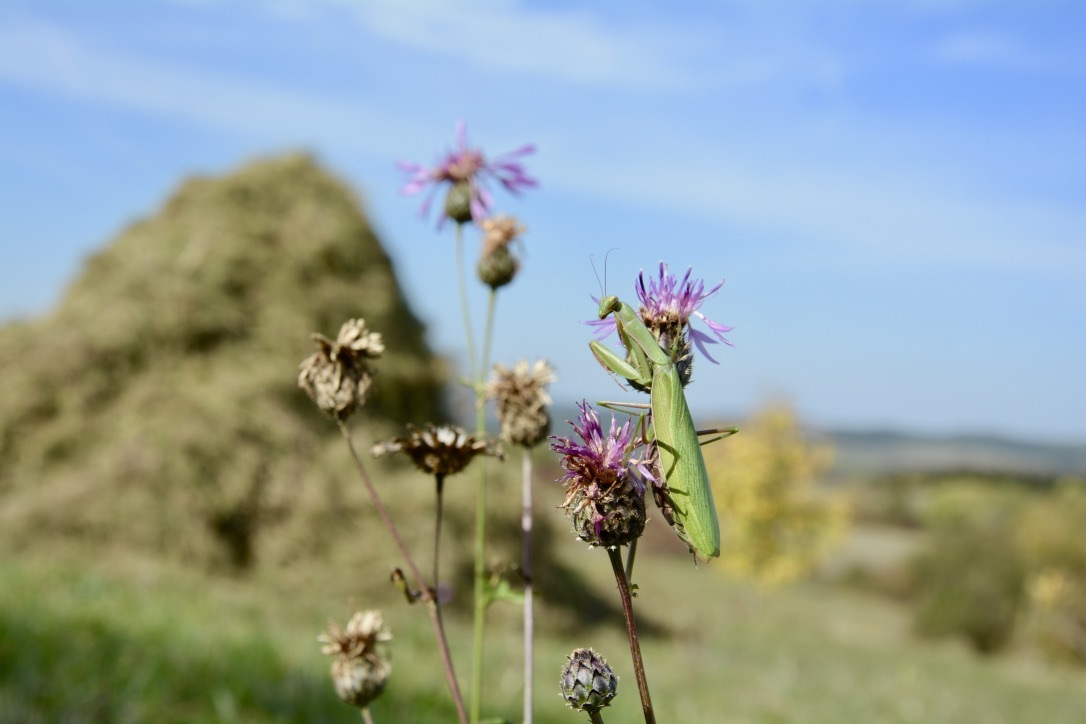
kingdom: Animalia
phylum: Arthropoda
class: Insecta
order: Mantodea
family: Mantidae
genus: Mantis
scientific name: Mantis religiosa
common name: Praying mantis
